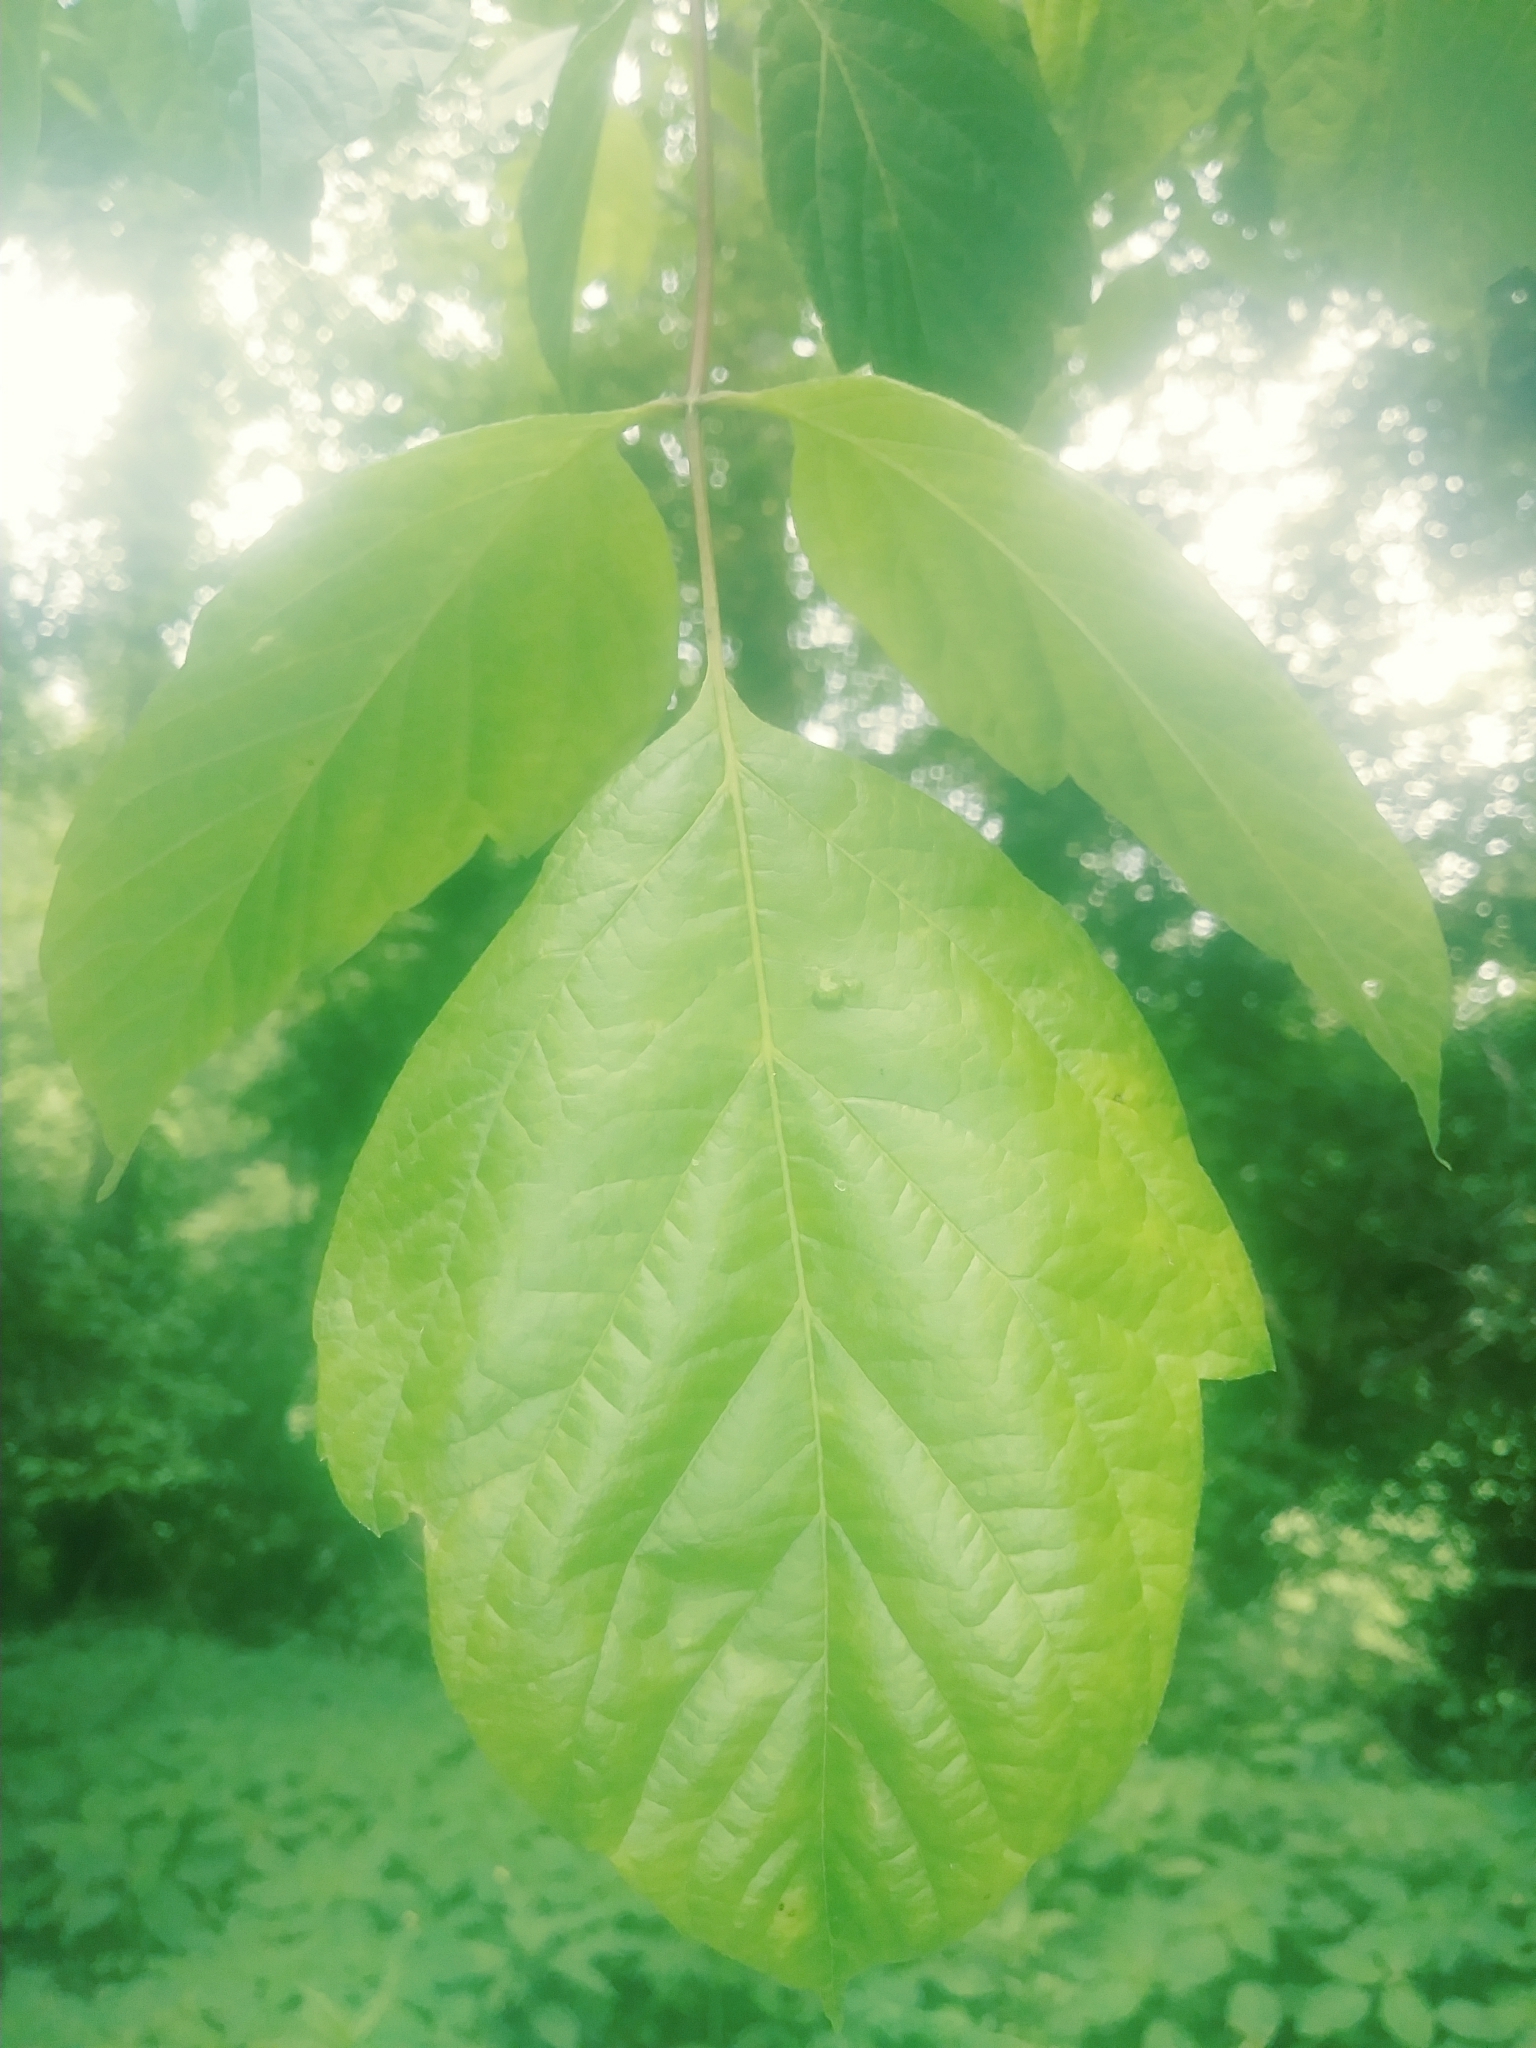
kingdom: Plantae
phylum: Tracheophyta
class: Magnoliopsida
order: Sapindales
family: Sapindaceae
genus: Acer
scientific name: Acer negundo
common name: Ashleaf maple
